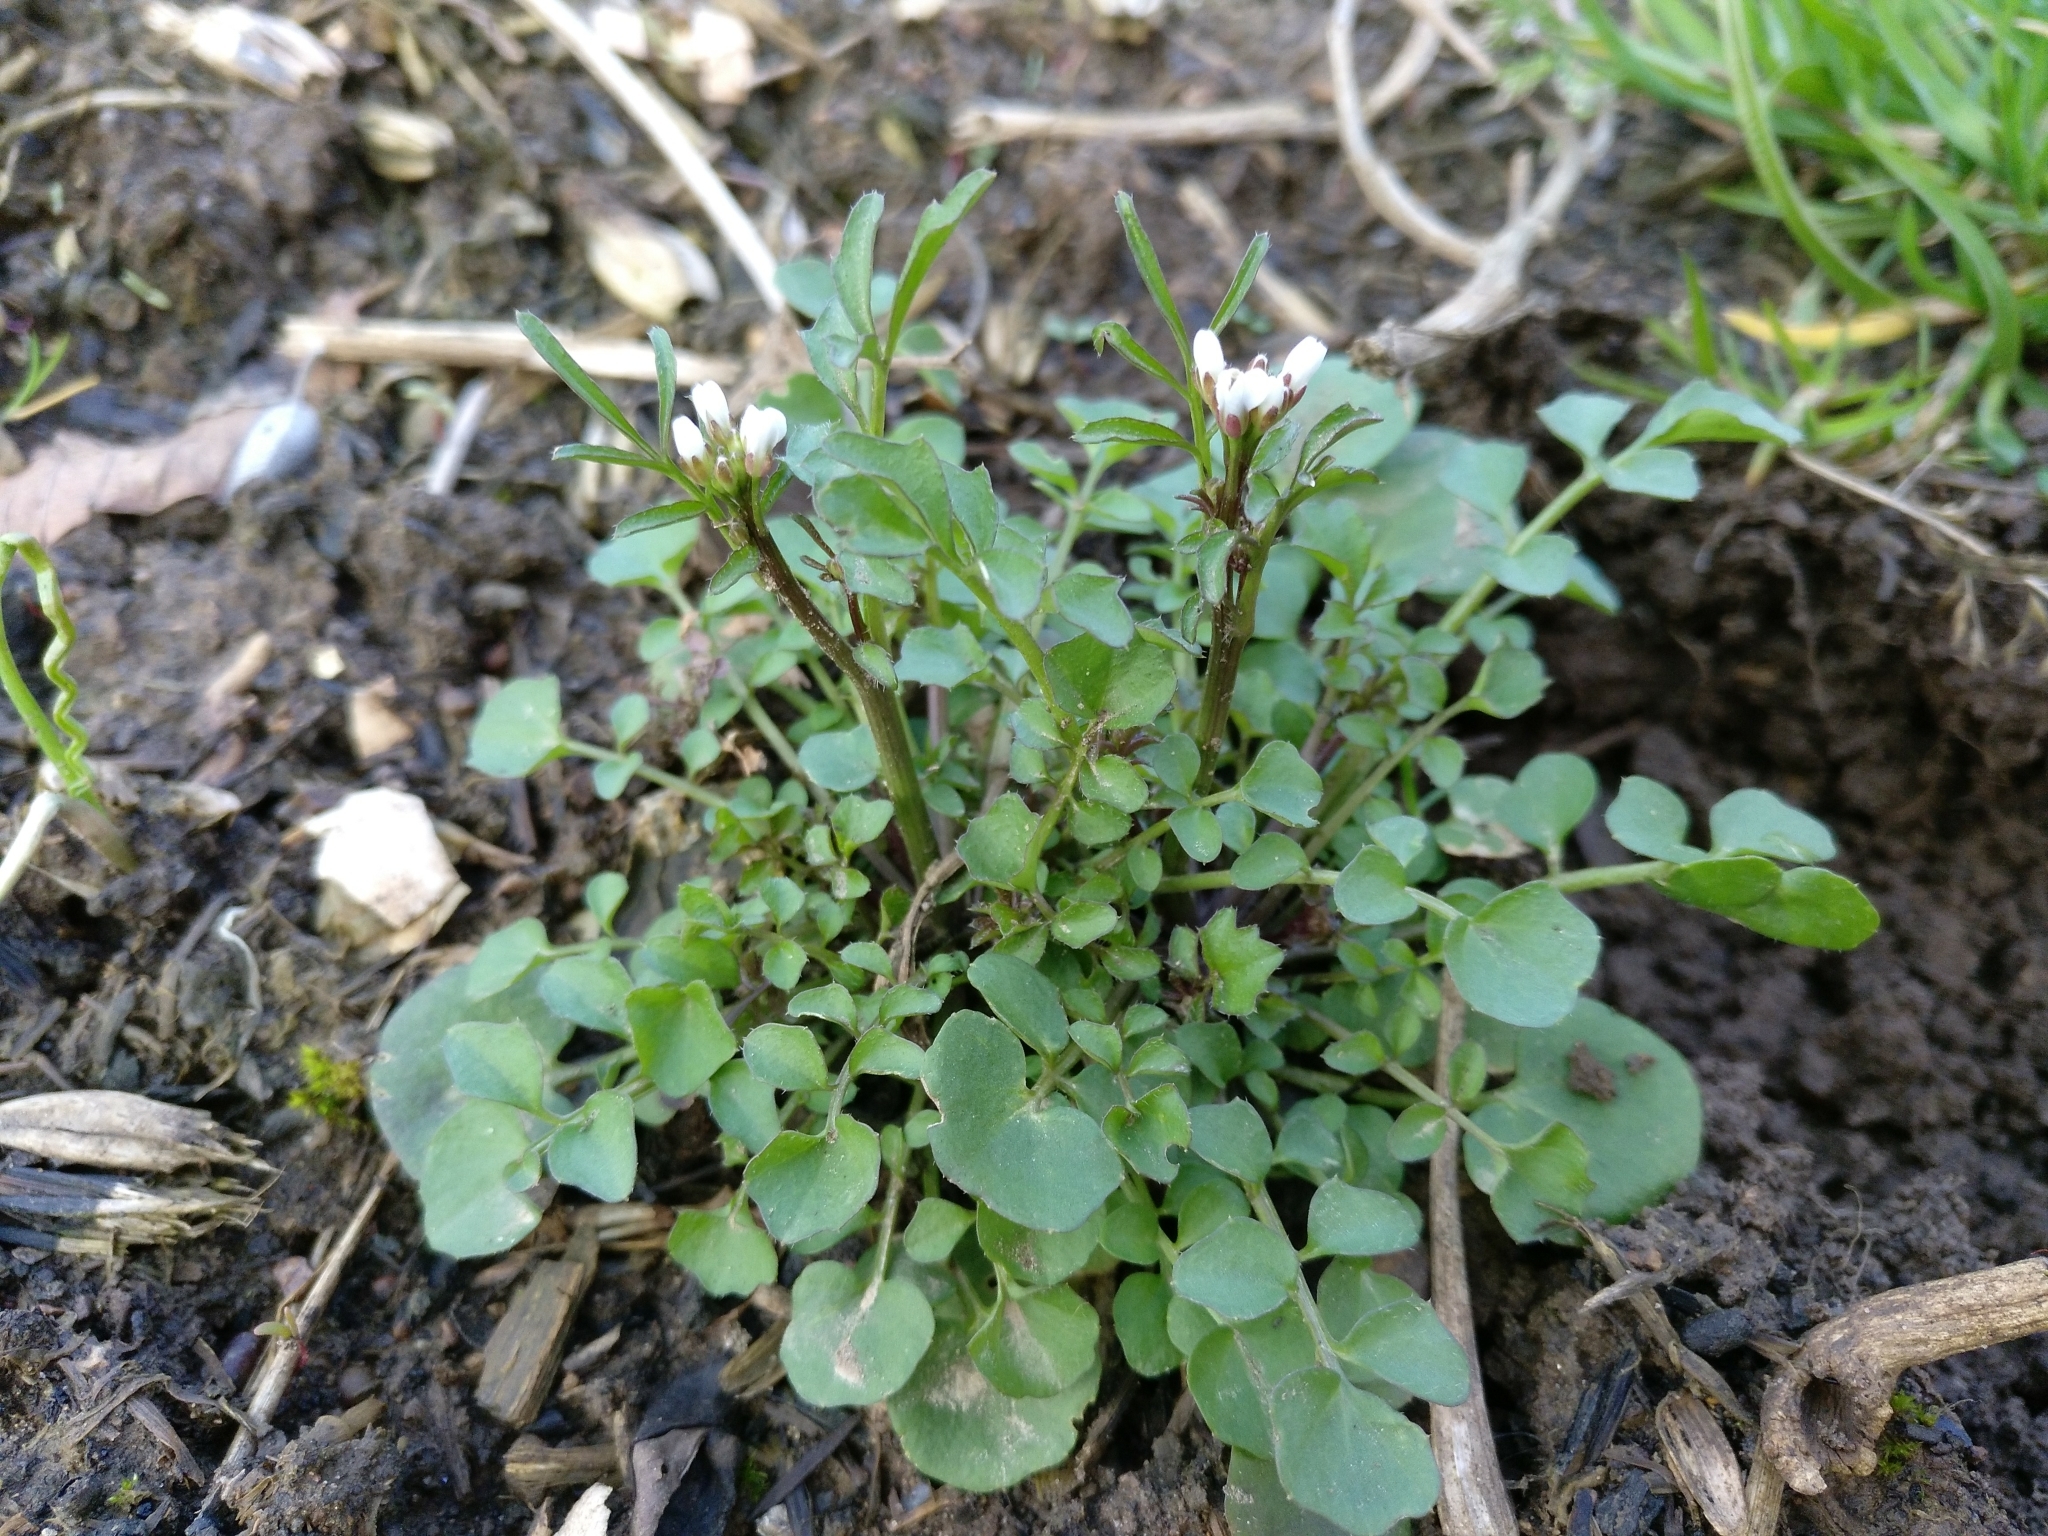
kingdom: Plantae
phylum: Tracheophyta
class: Magnoliopsida
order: Brassicales
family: Brassicaceae
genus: Cardamine
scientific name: Cardamine hirsuta
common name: Hairy bittercress
